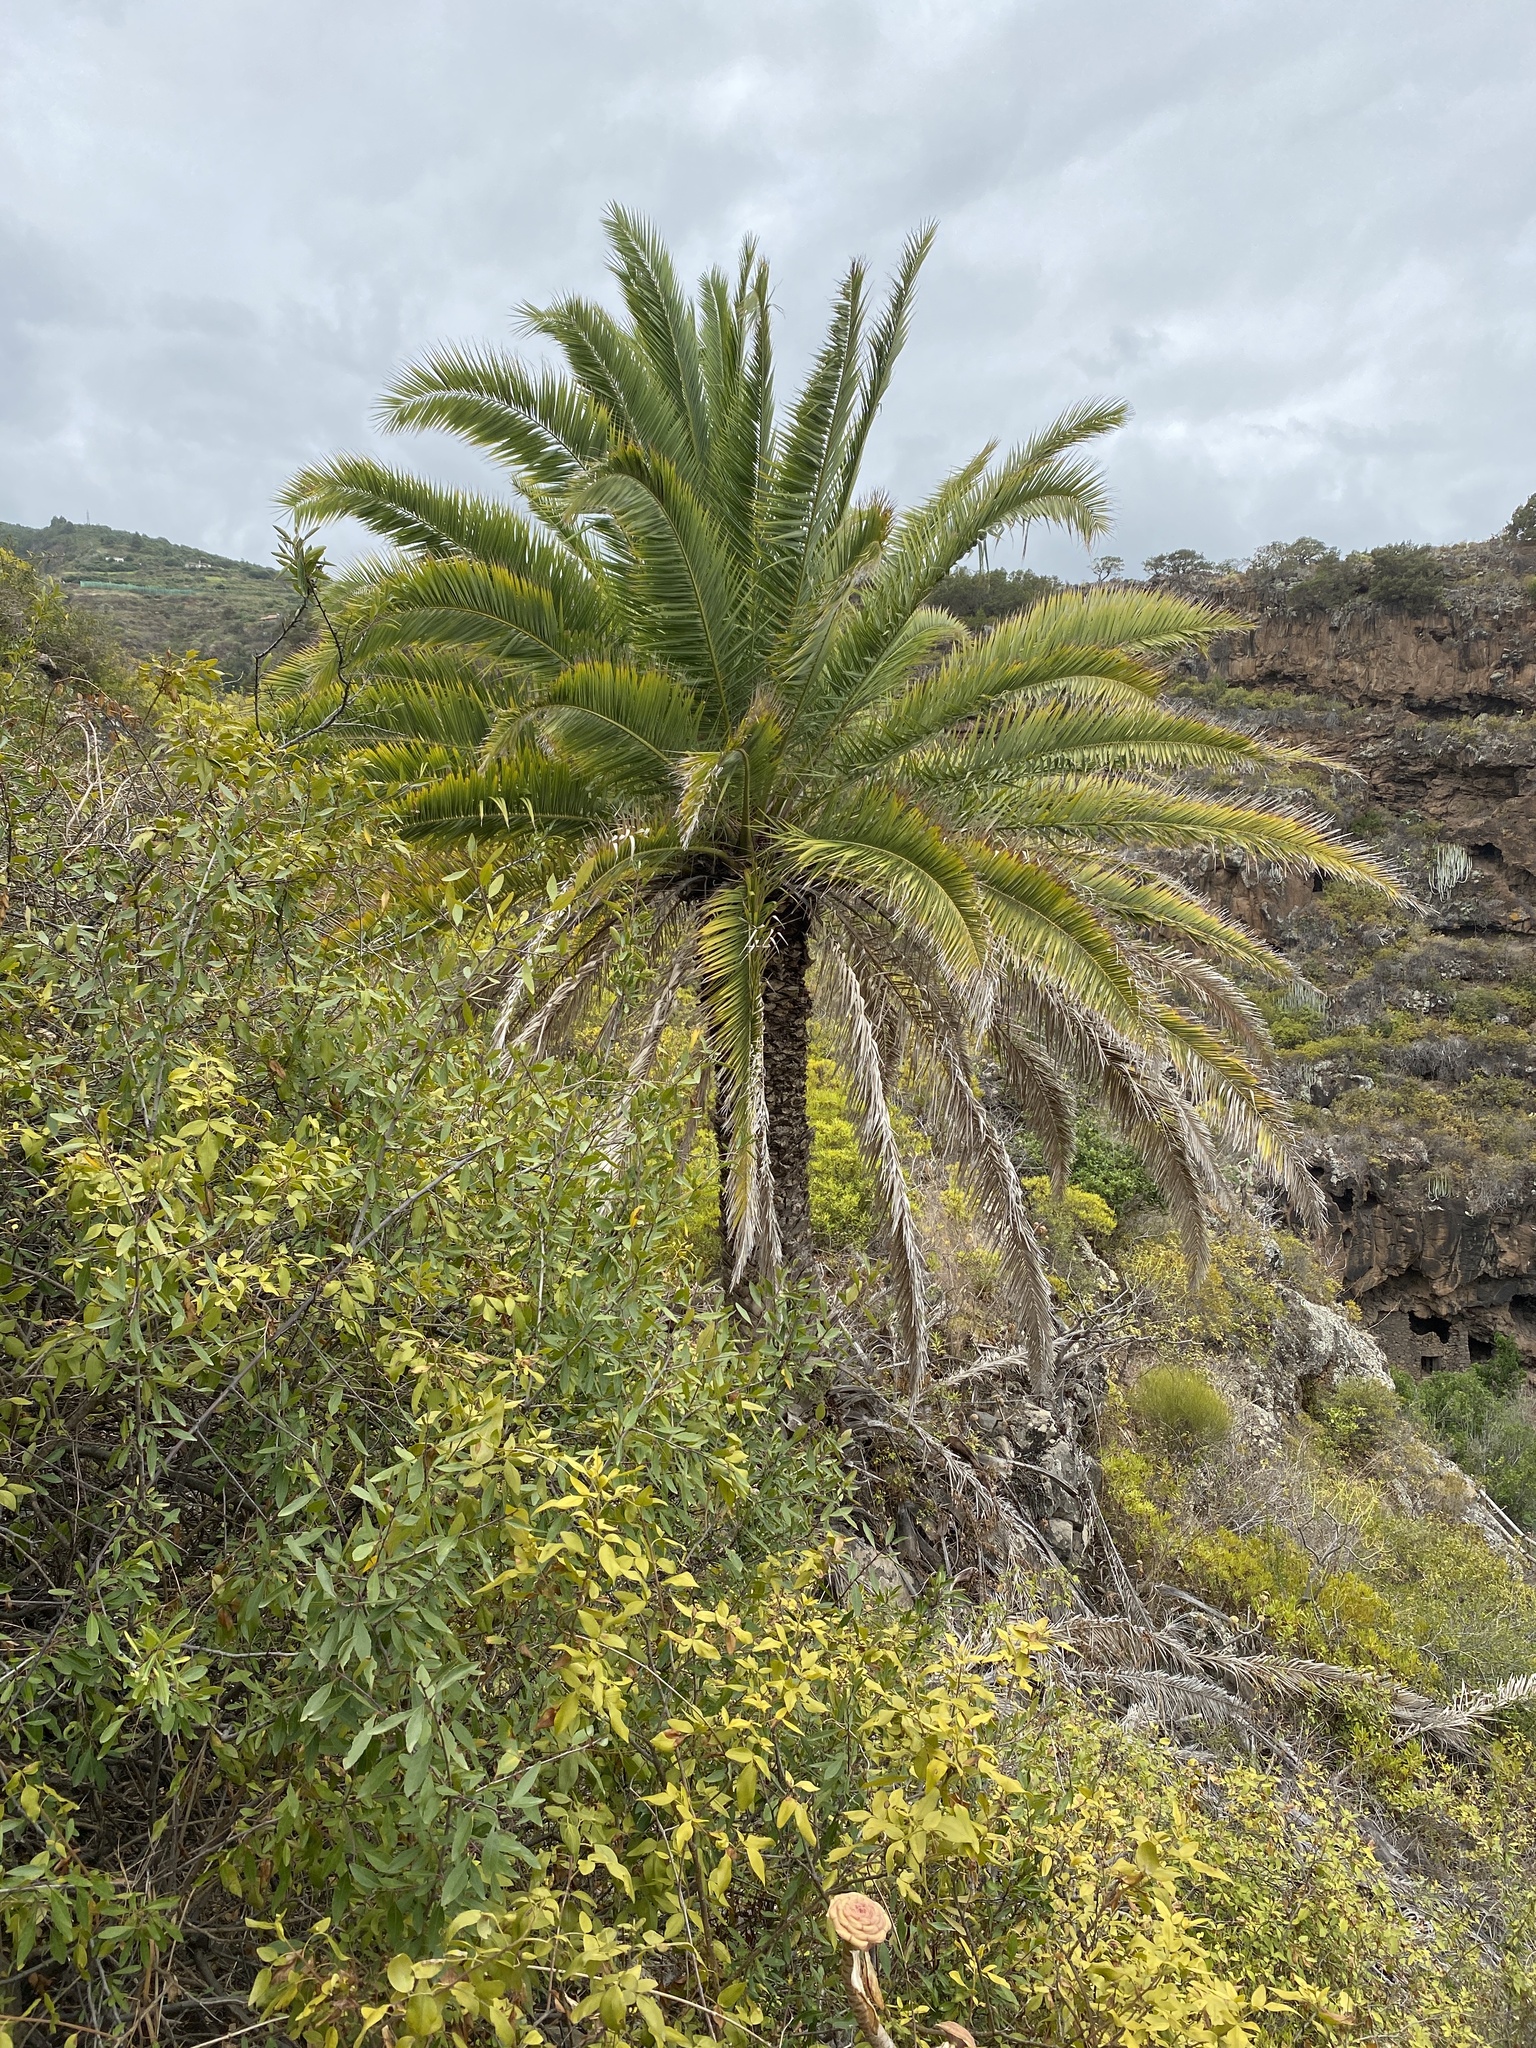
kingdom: Plantae
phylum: Tracheophyta
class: Liliopsida
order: Arecales
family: Arecaceae
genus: Phoenix
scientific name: Phoenix canariensis
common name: Canary island date palm
